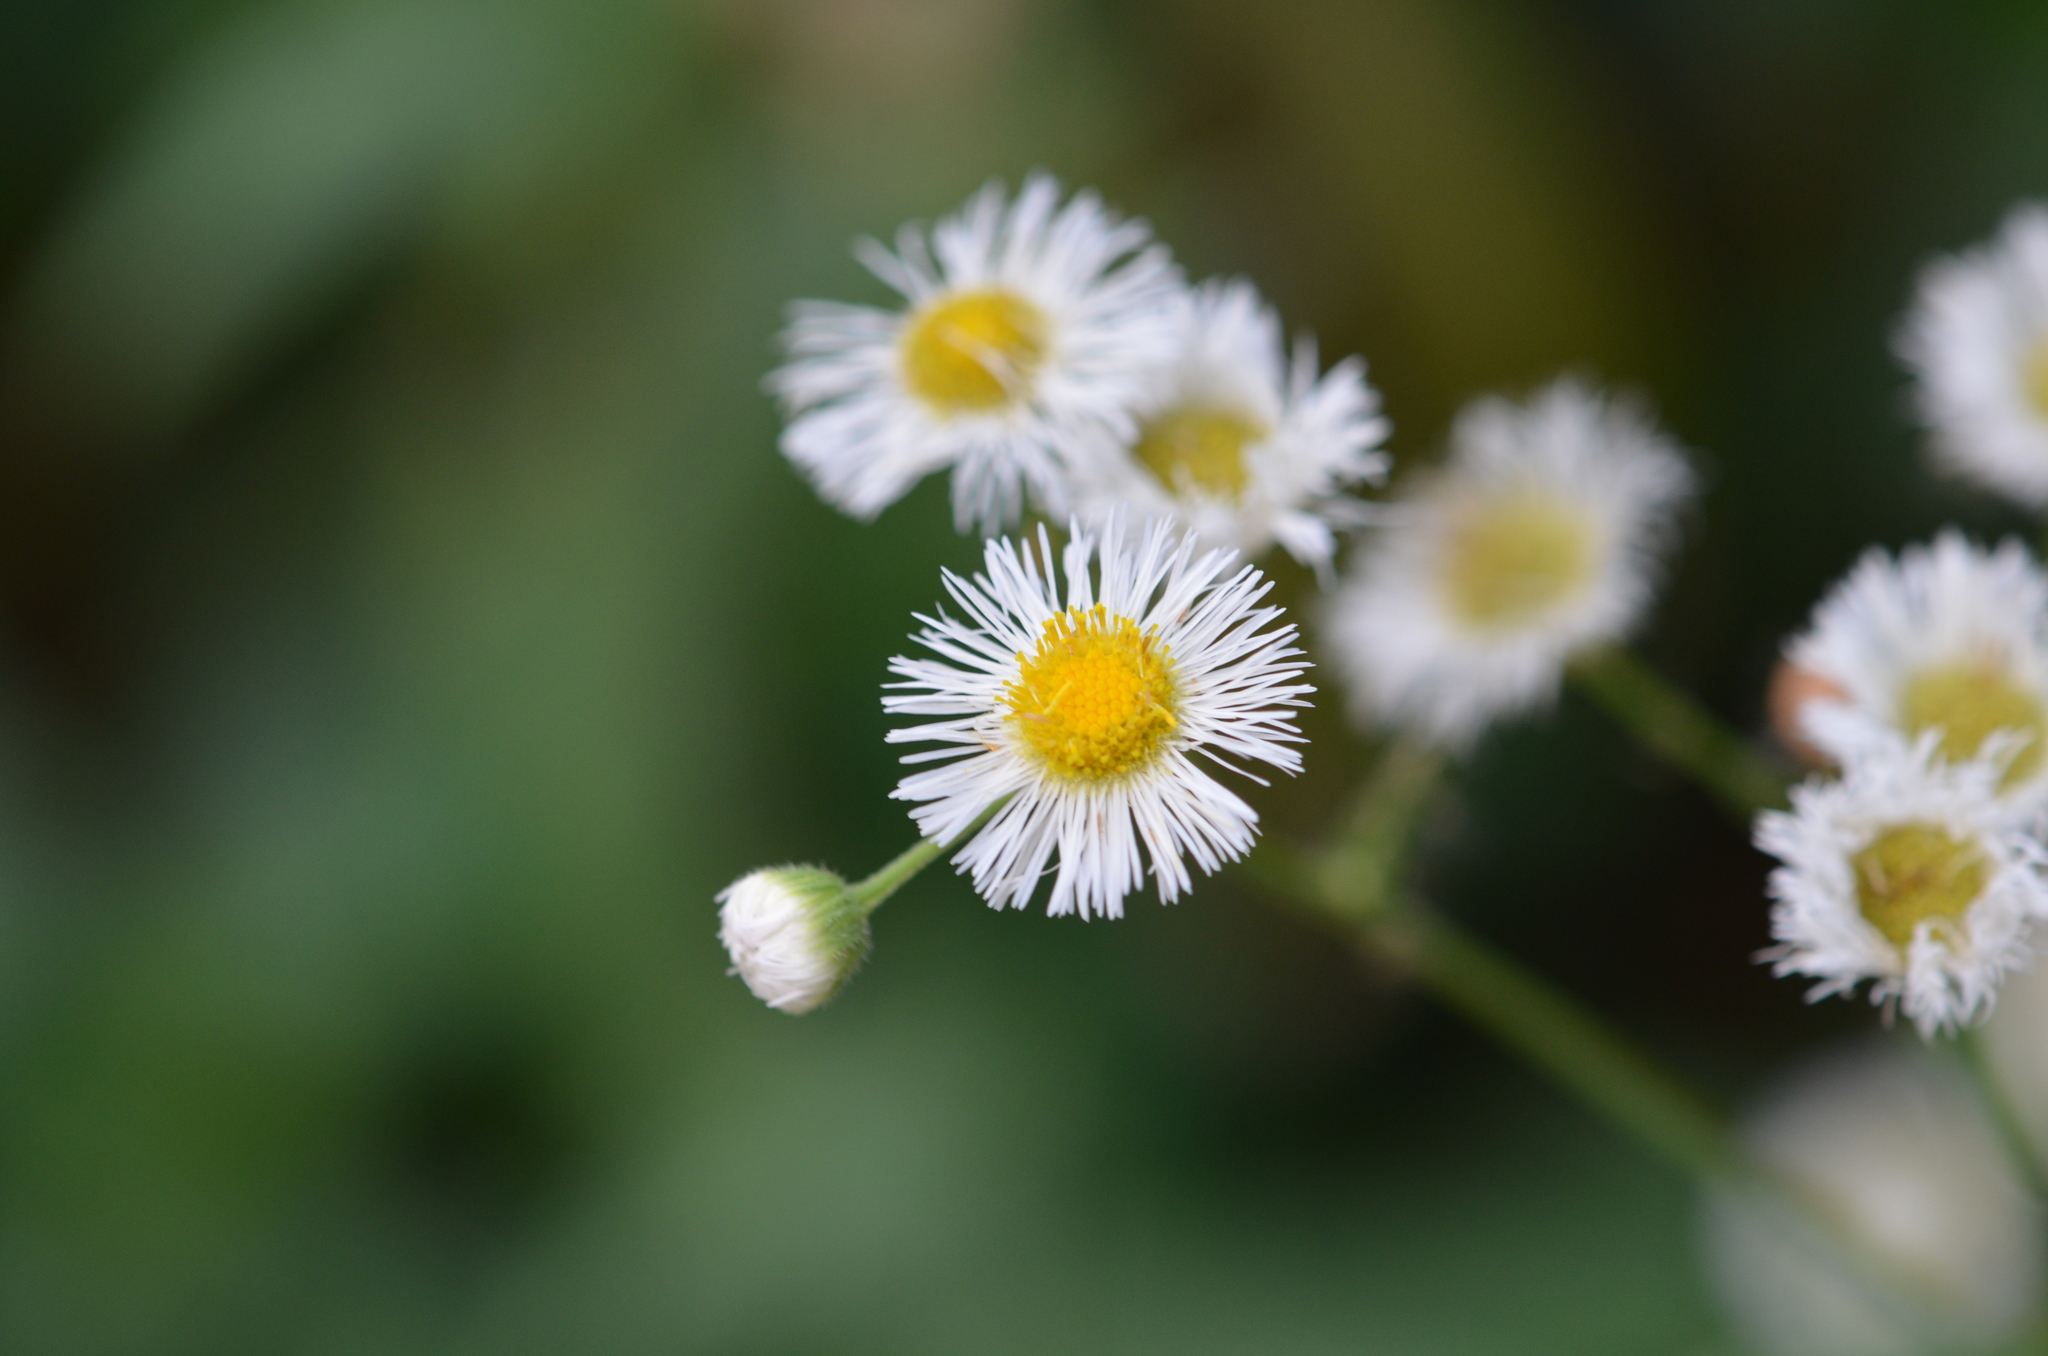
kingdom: Plantae
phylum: Tracheophyta
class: Magnoliopsida
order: Asterales
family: Asteraceae
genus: Erigeron
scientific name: Erigeron philadelphicus
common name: Robin's-plantain
